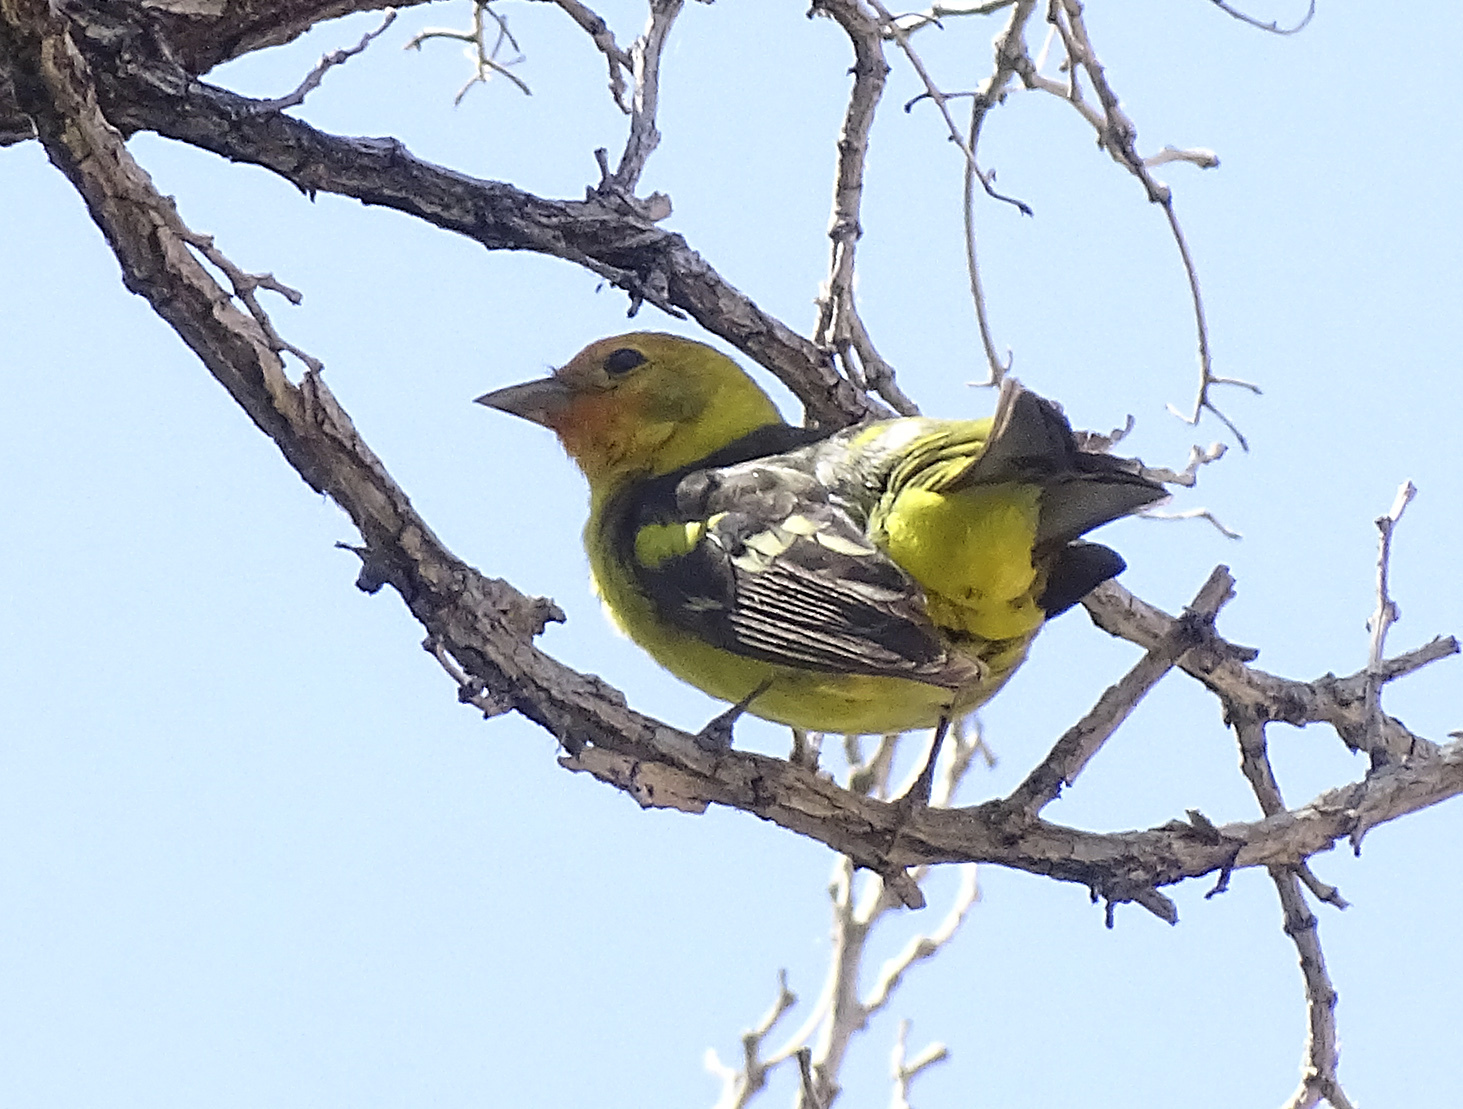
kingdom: Animalia
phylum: Chordata
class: Aves
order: Passeriformes
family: Cardinalidae
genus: Piranga
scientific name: Piranga ludoviciana
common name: Western tanager
